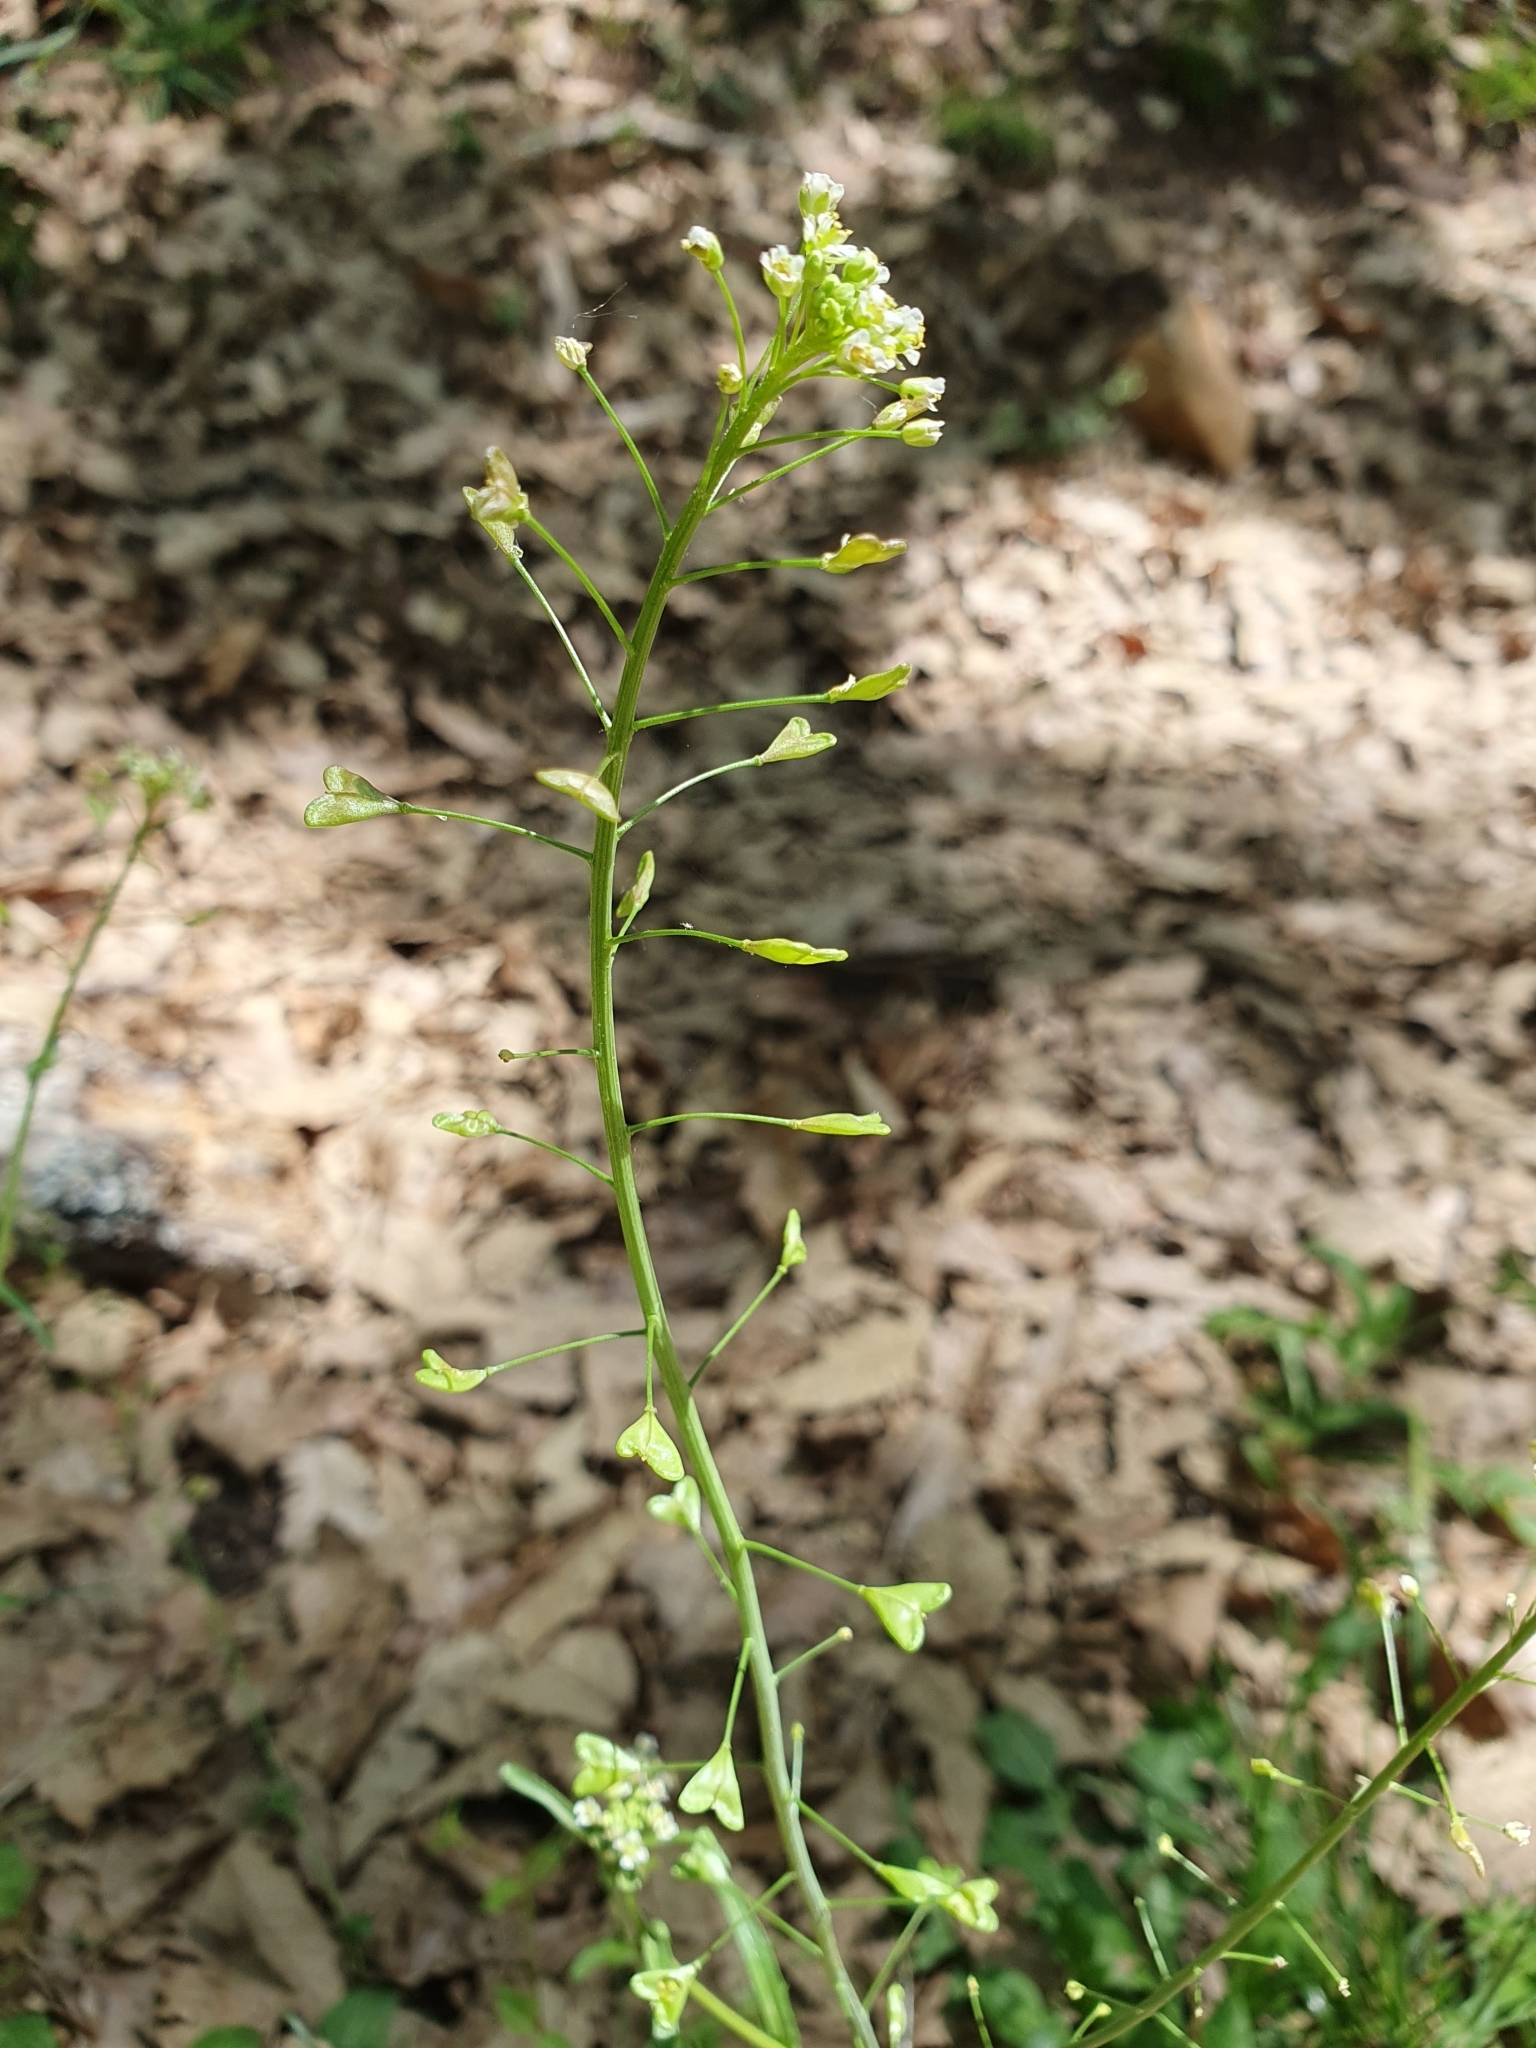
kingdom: Plantae
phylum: Tracheophyta
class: Magnoliopsida
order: Brassicales
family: Brassicaceae
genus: Capsella
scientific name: Capsella bursa-pastoris
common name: Shepherd's purse
